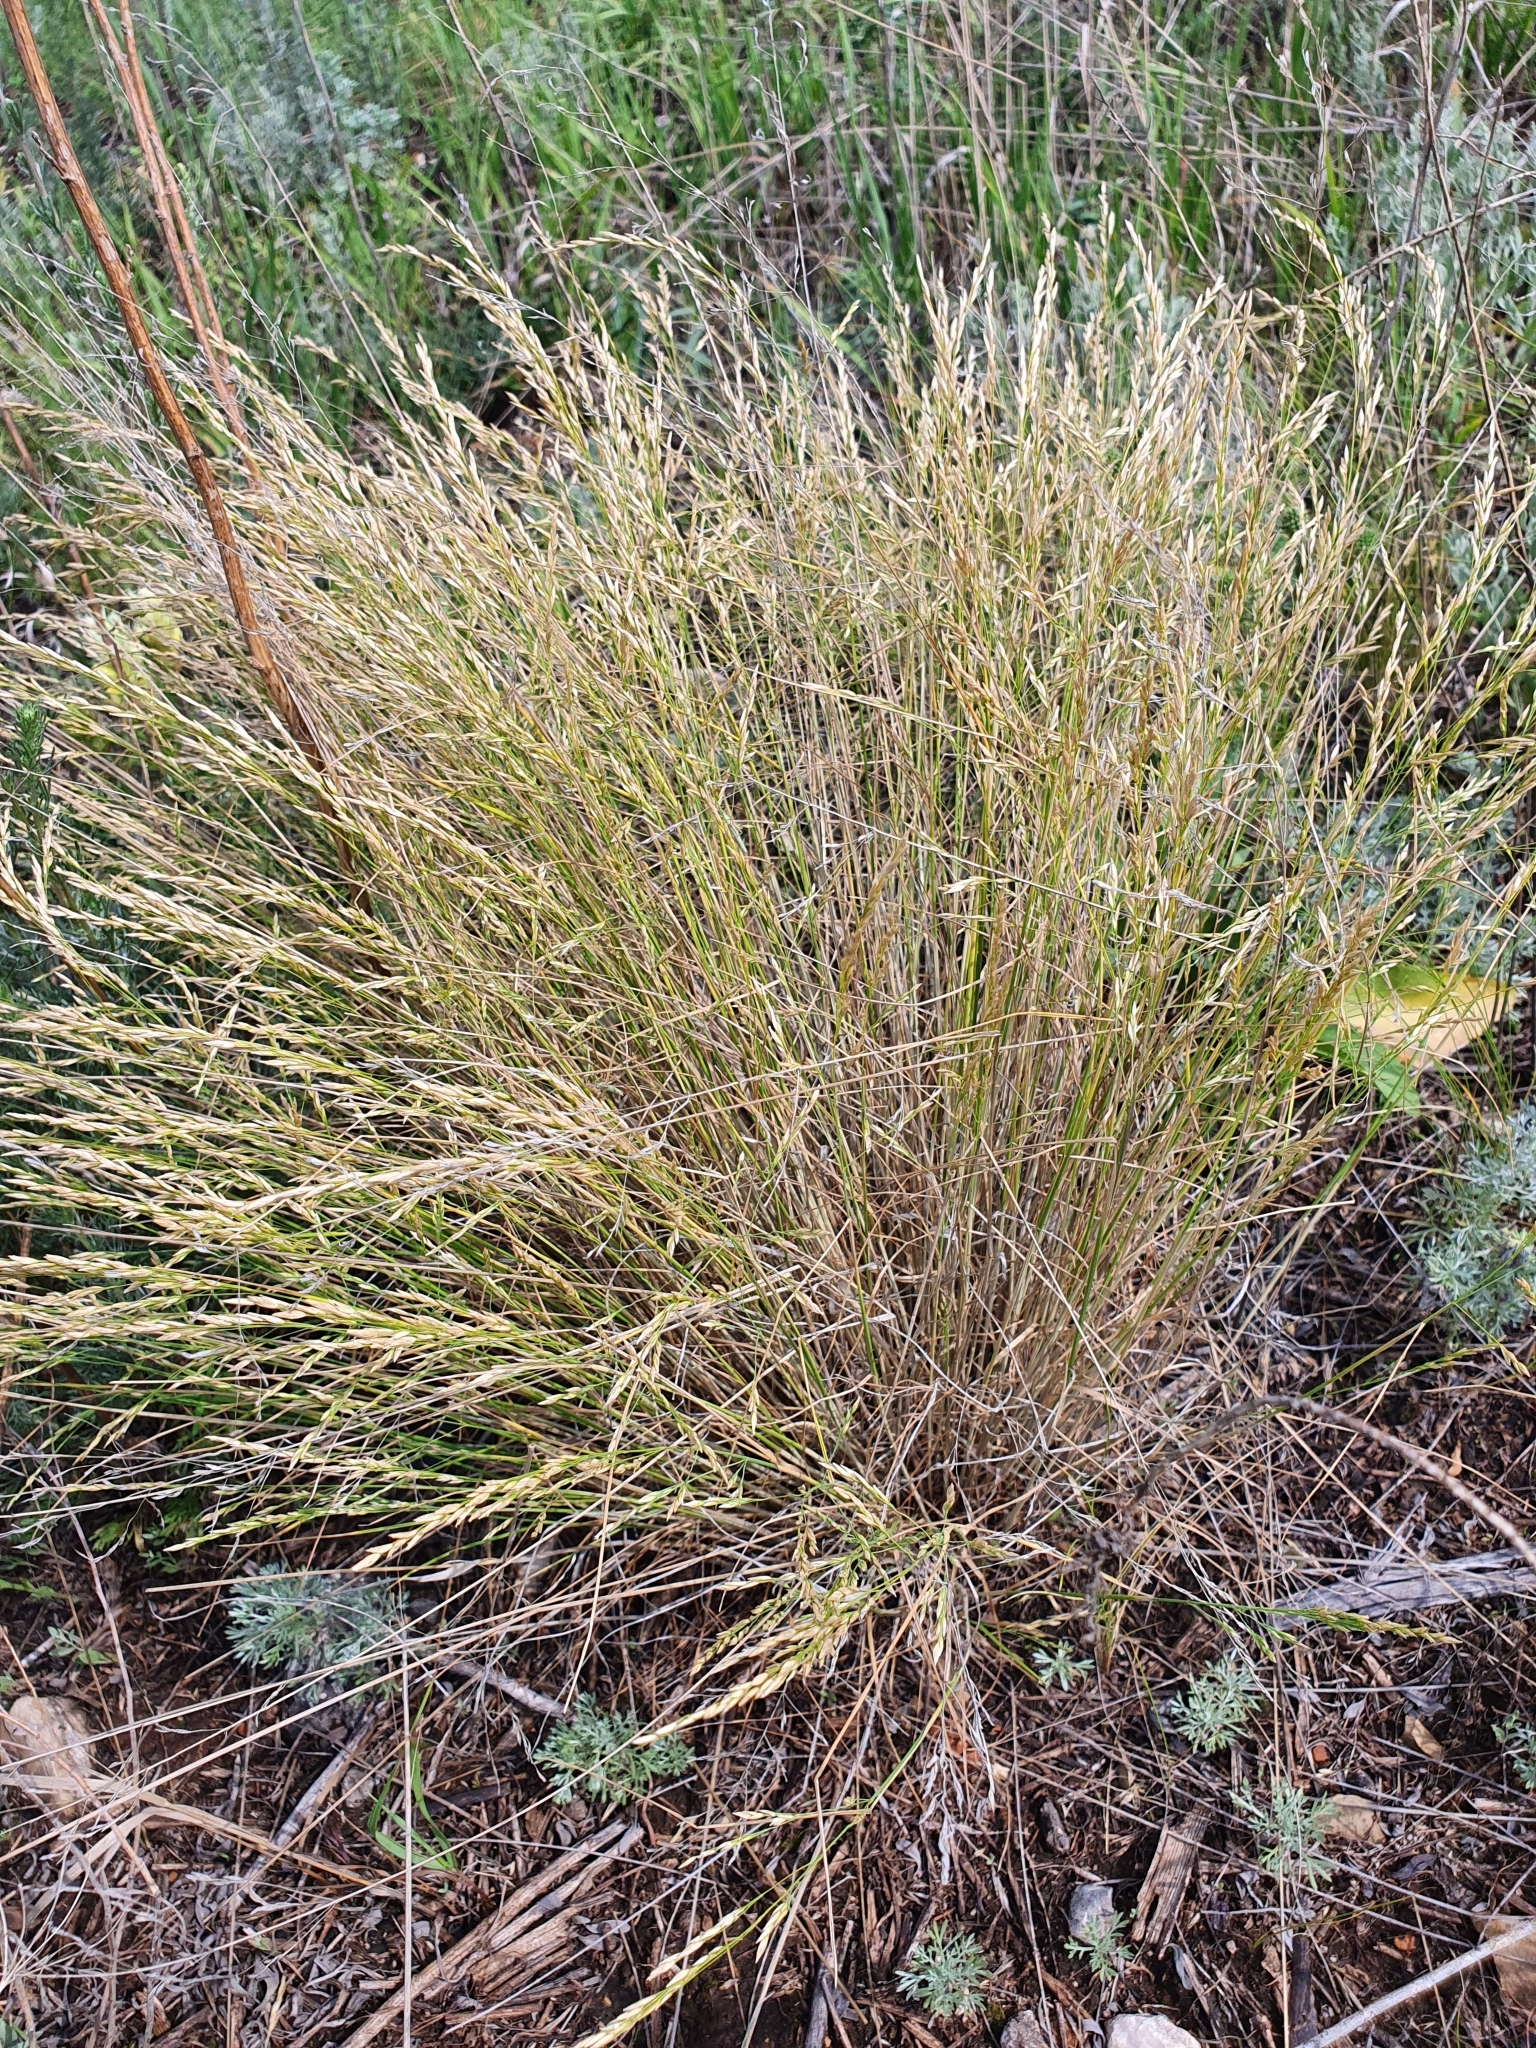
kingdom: Plantae
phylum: Tracheophyta
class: Liliopsida
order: Poales
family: Poaceae
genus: Festuca
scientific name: Festuca valesiaca
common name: Volga fescue
